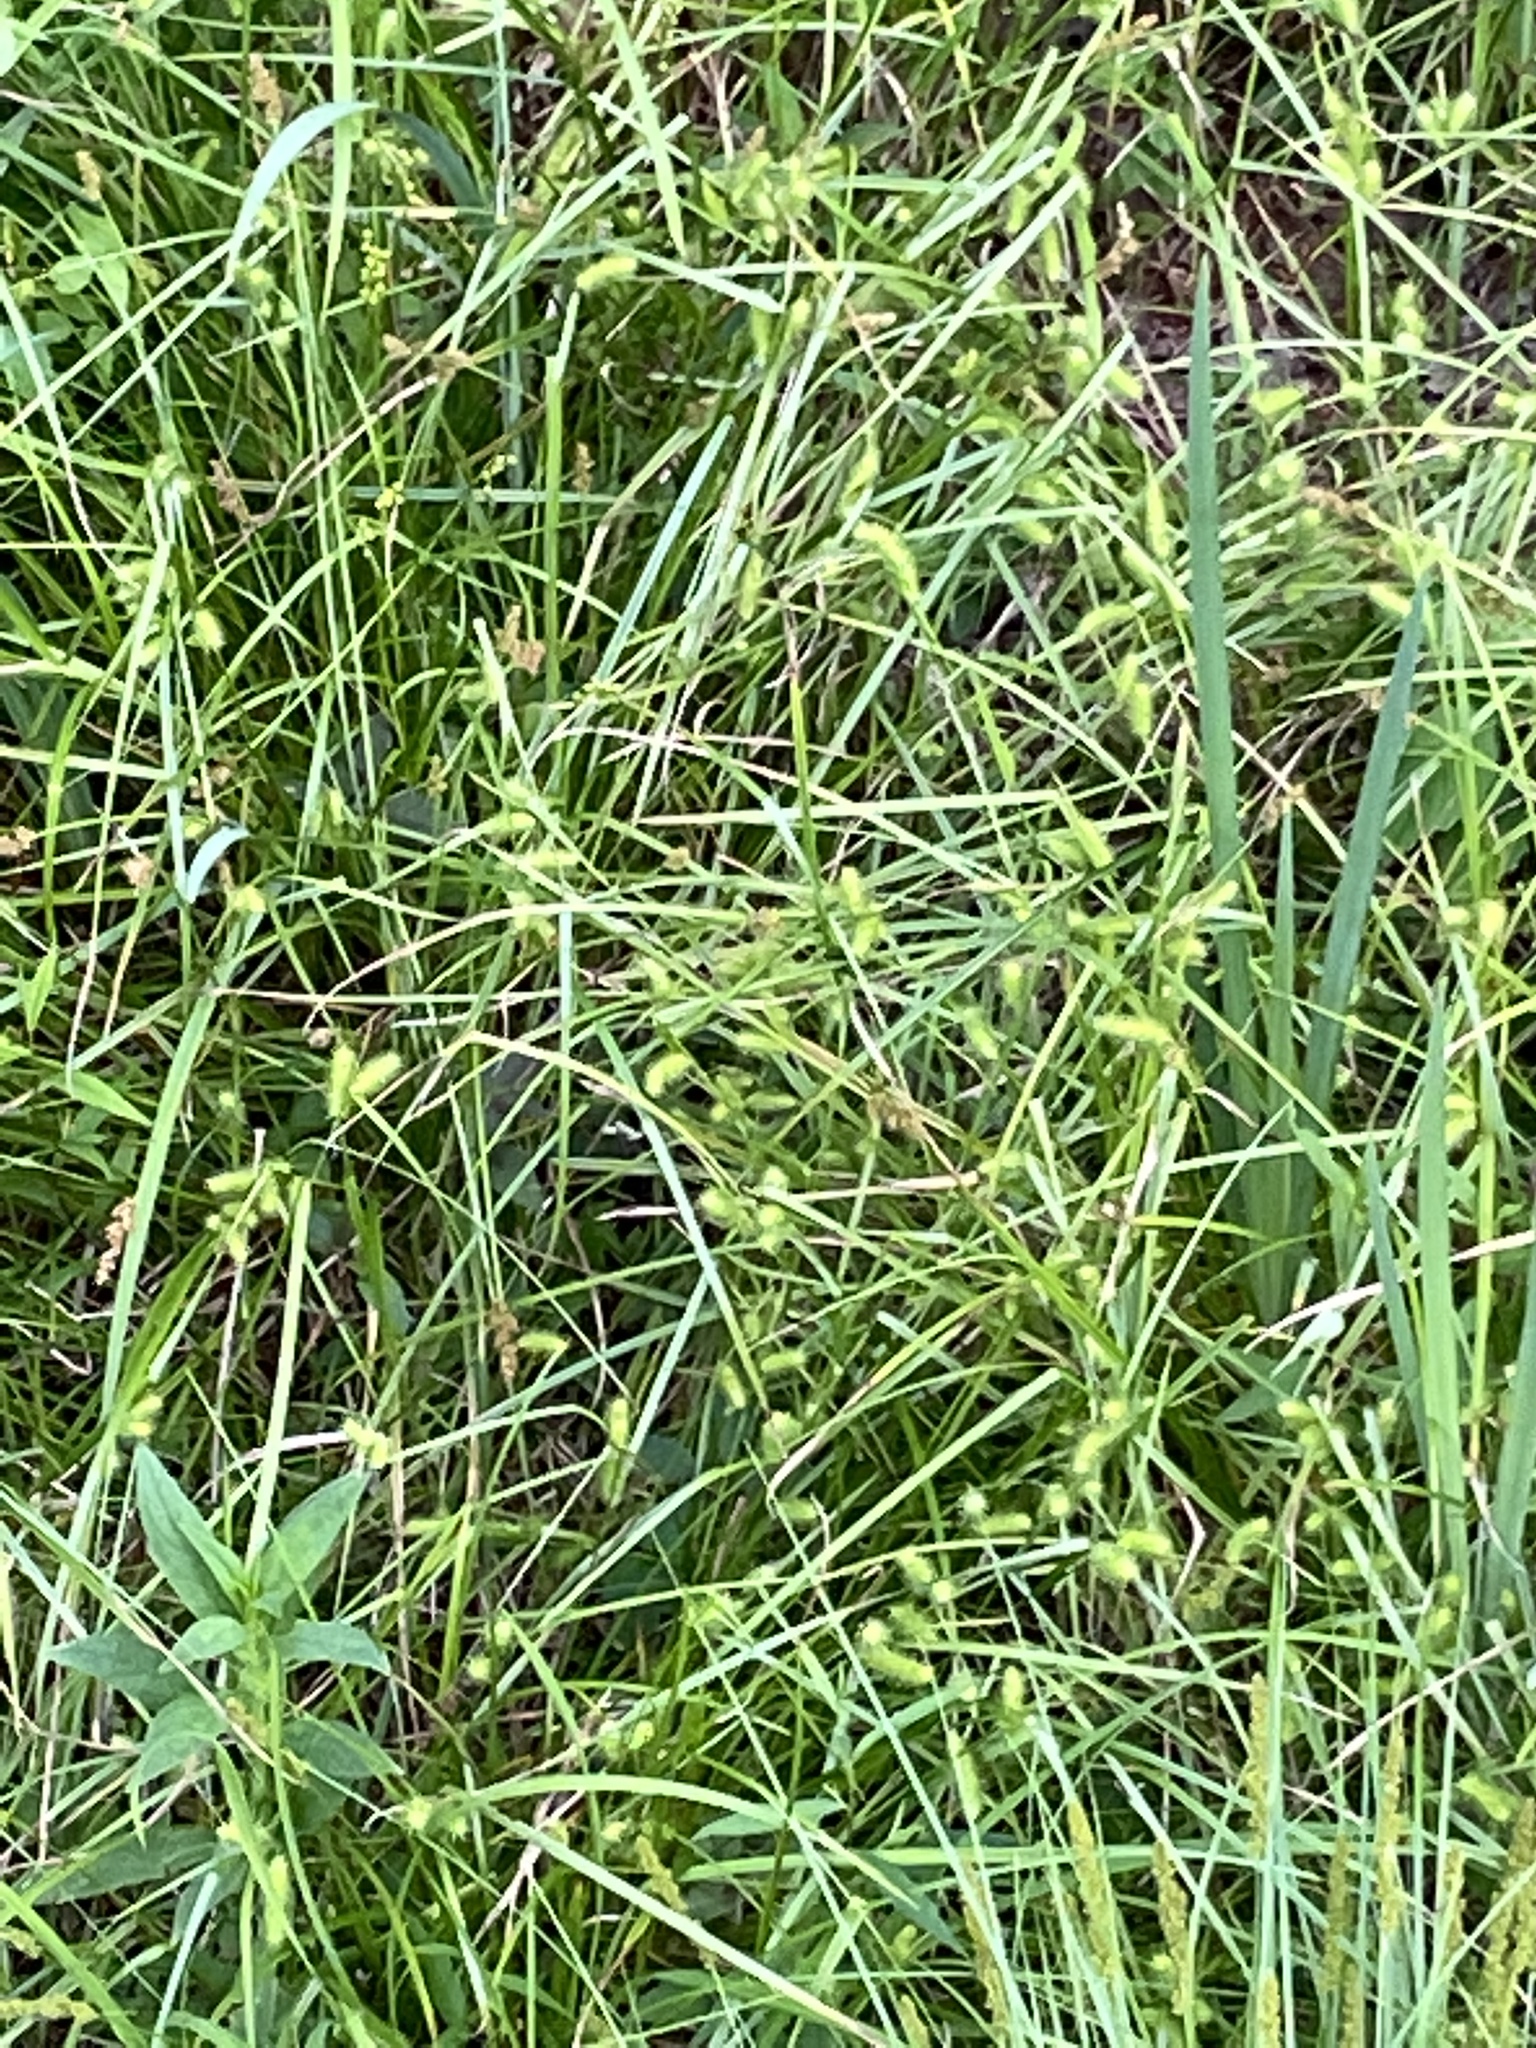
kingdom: Plantae
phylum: Tracheophyta
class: Liliopsida
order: Poales
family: Cyperaceae
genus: Carex
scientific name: Carex lurida
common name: Sallow sedge
